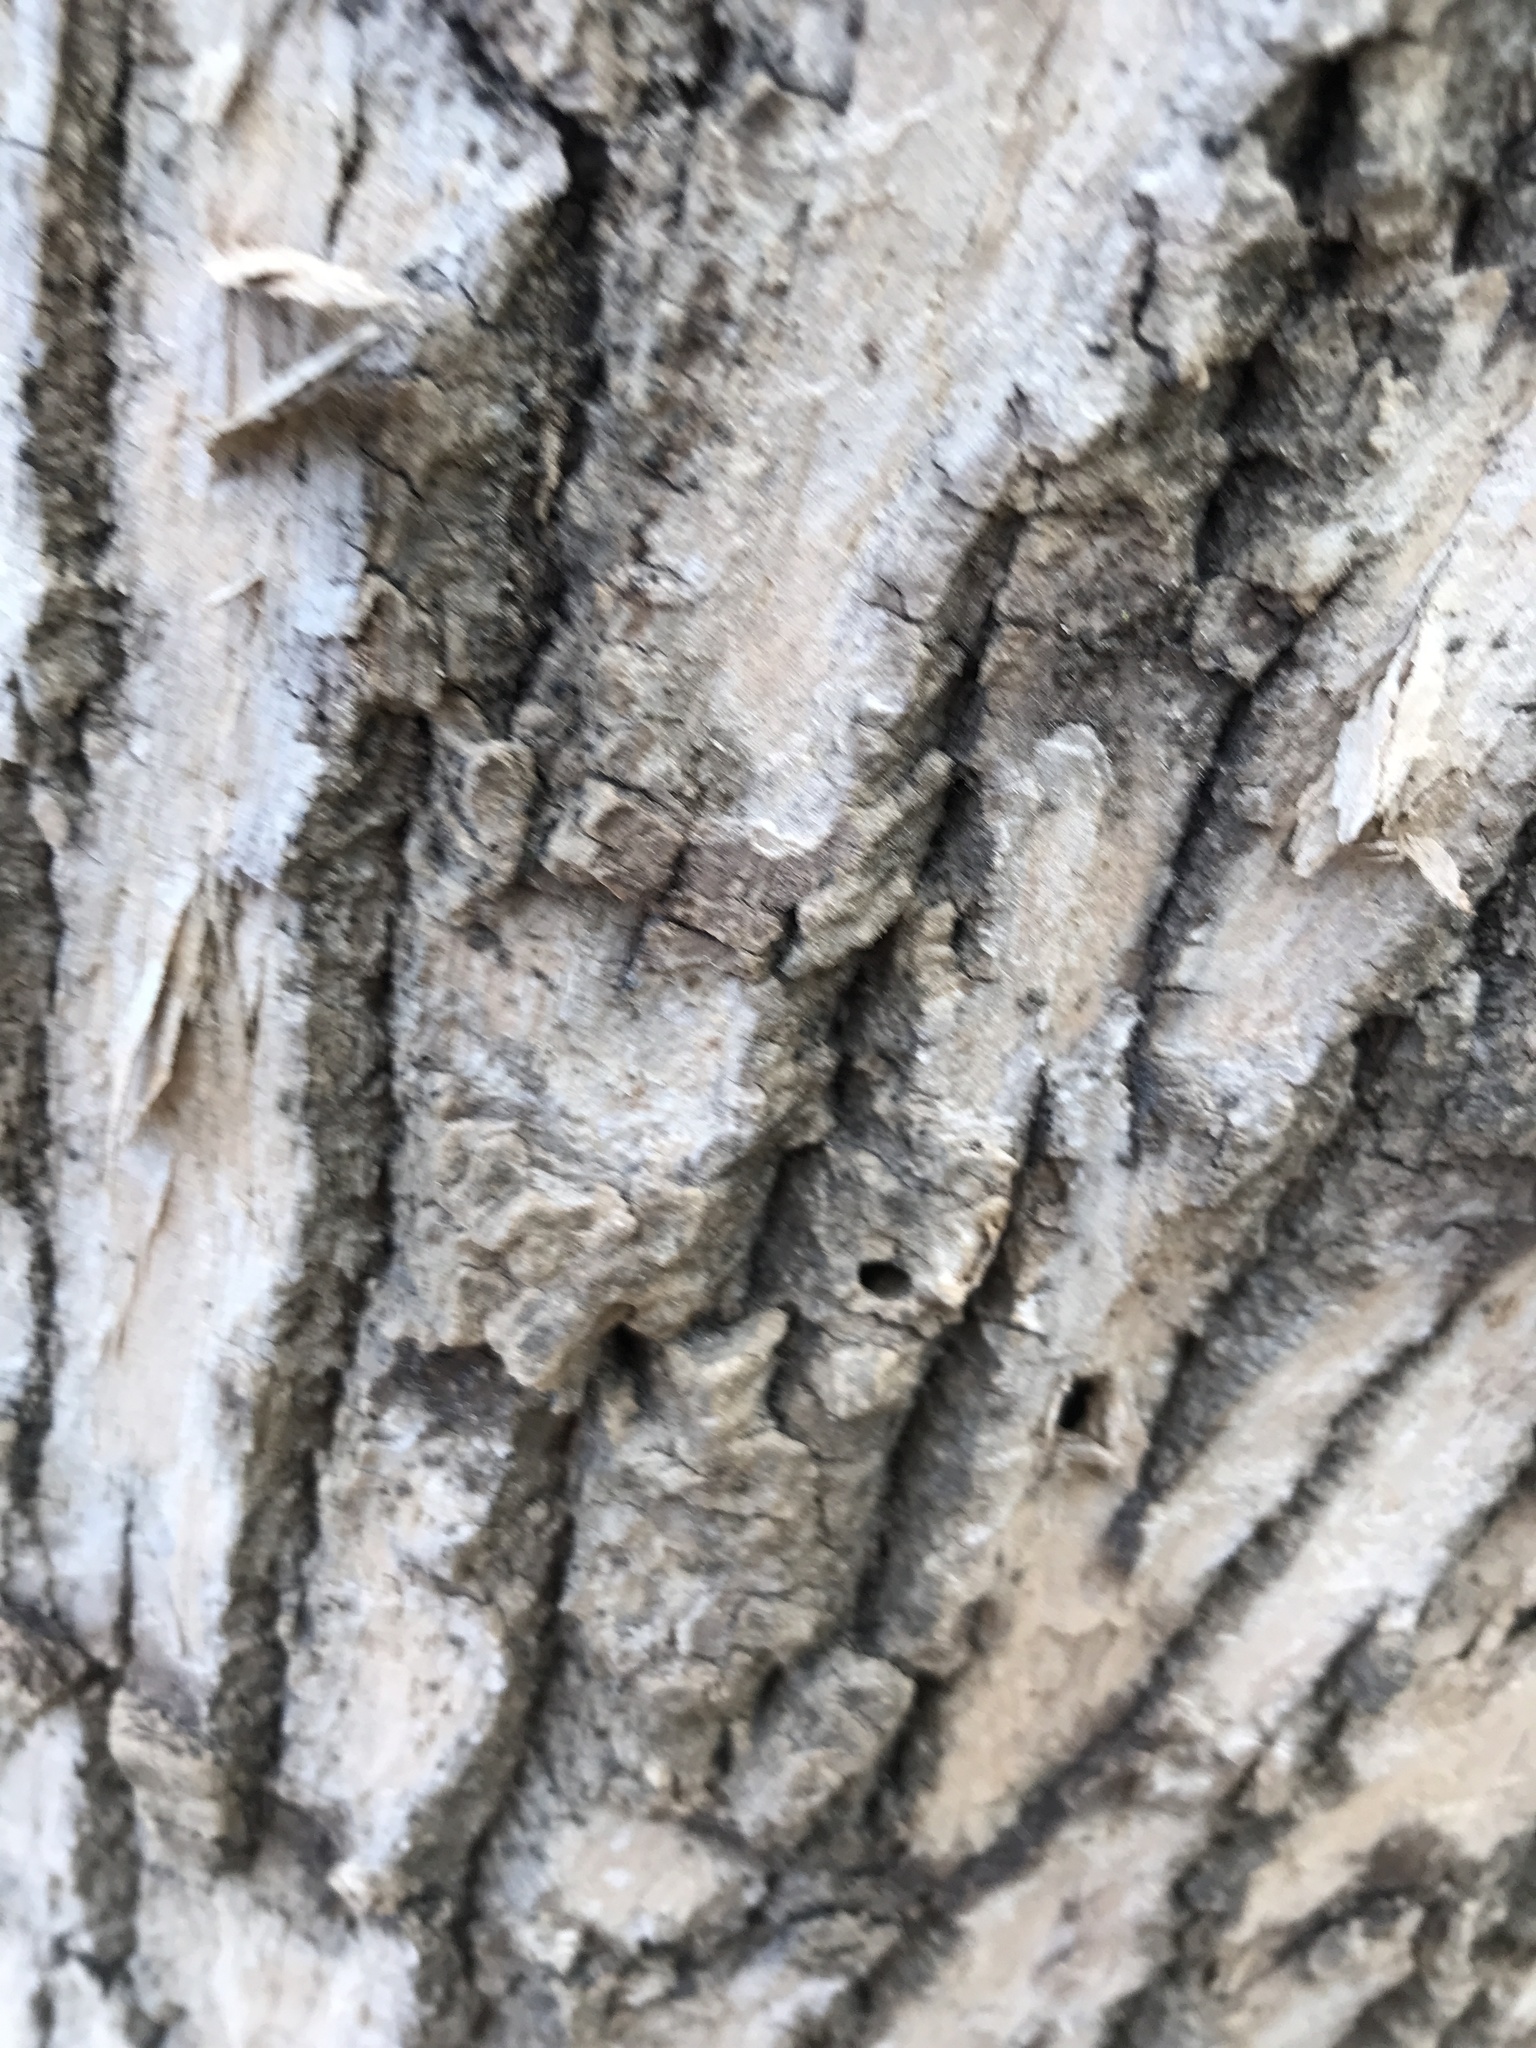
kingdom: Animalia
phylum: Arthropoda
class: Insecta
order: Coleoptera
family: Buprestidae
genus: Agrilus
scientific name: Agrilus planipennis
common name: Emerald ash borer
